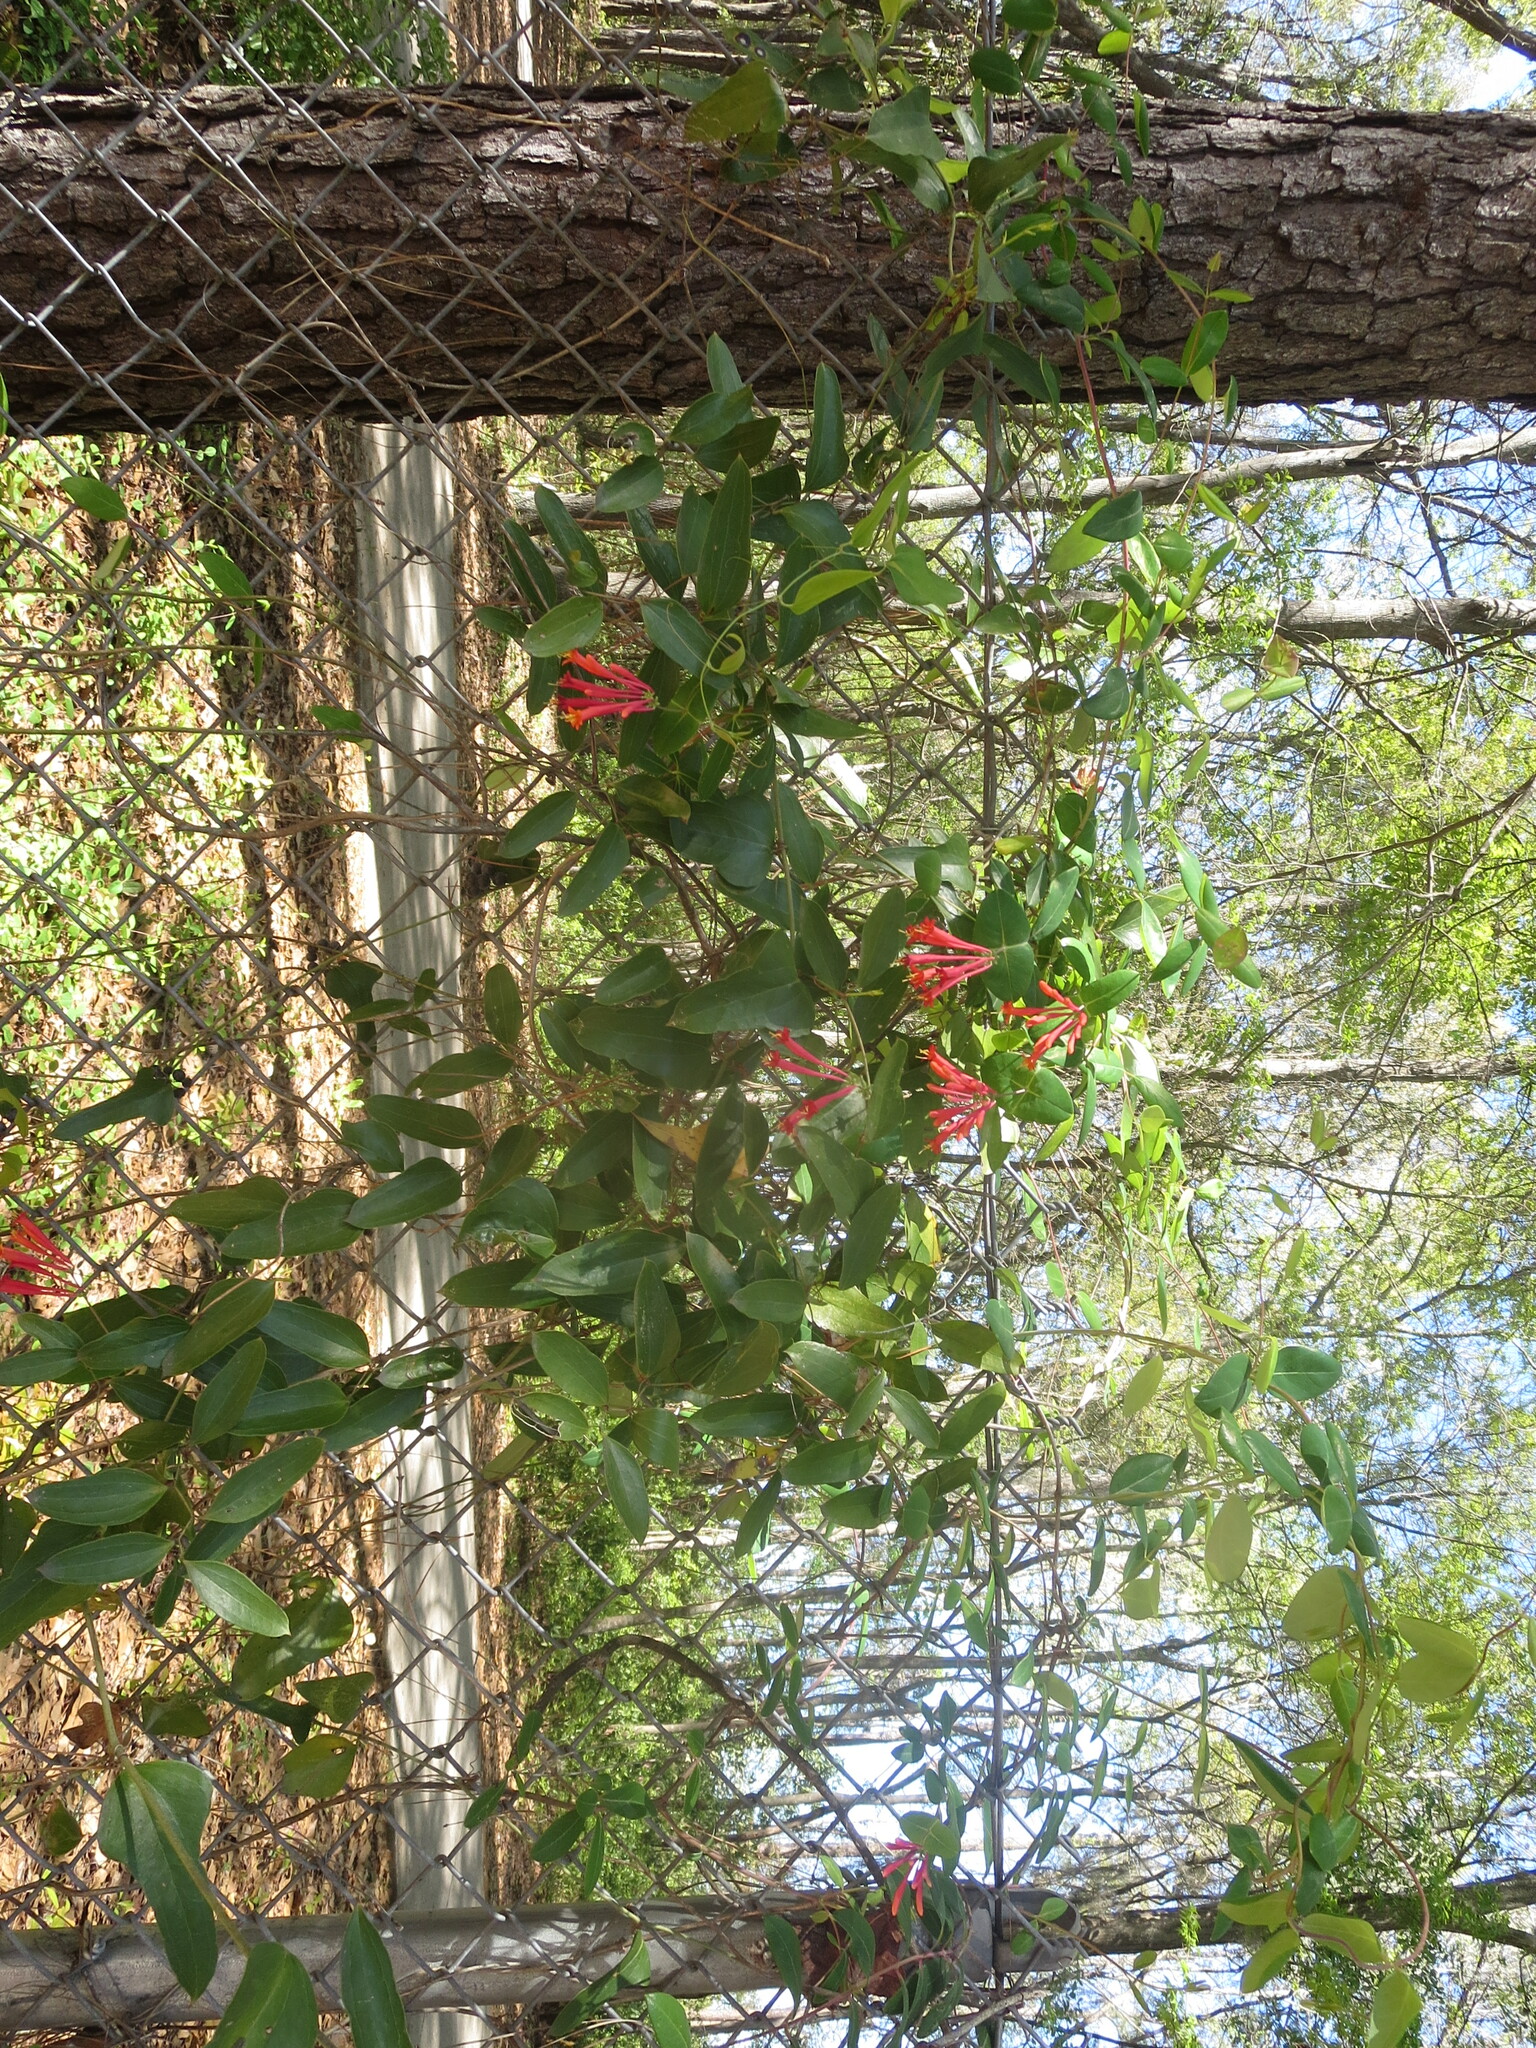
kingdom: Plantae
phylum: Tracheophyta
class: Magnoliopsida
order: Dipsacales
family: Caprifoliaceae
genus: Lonicera
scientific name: Lonicera sempervirens
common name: Coral honeysuckle
